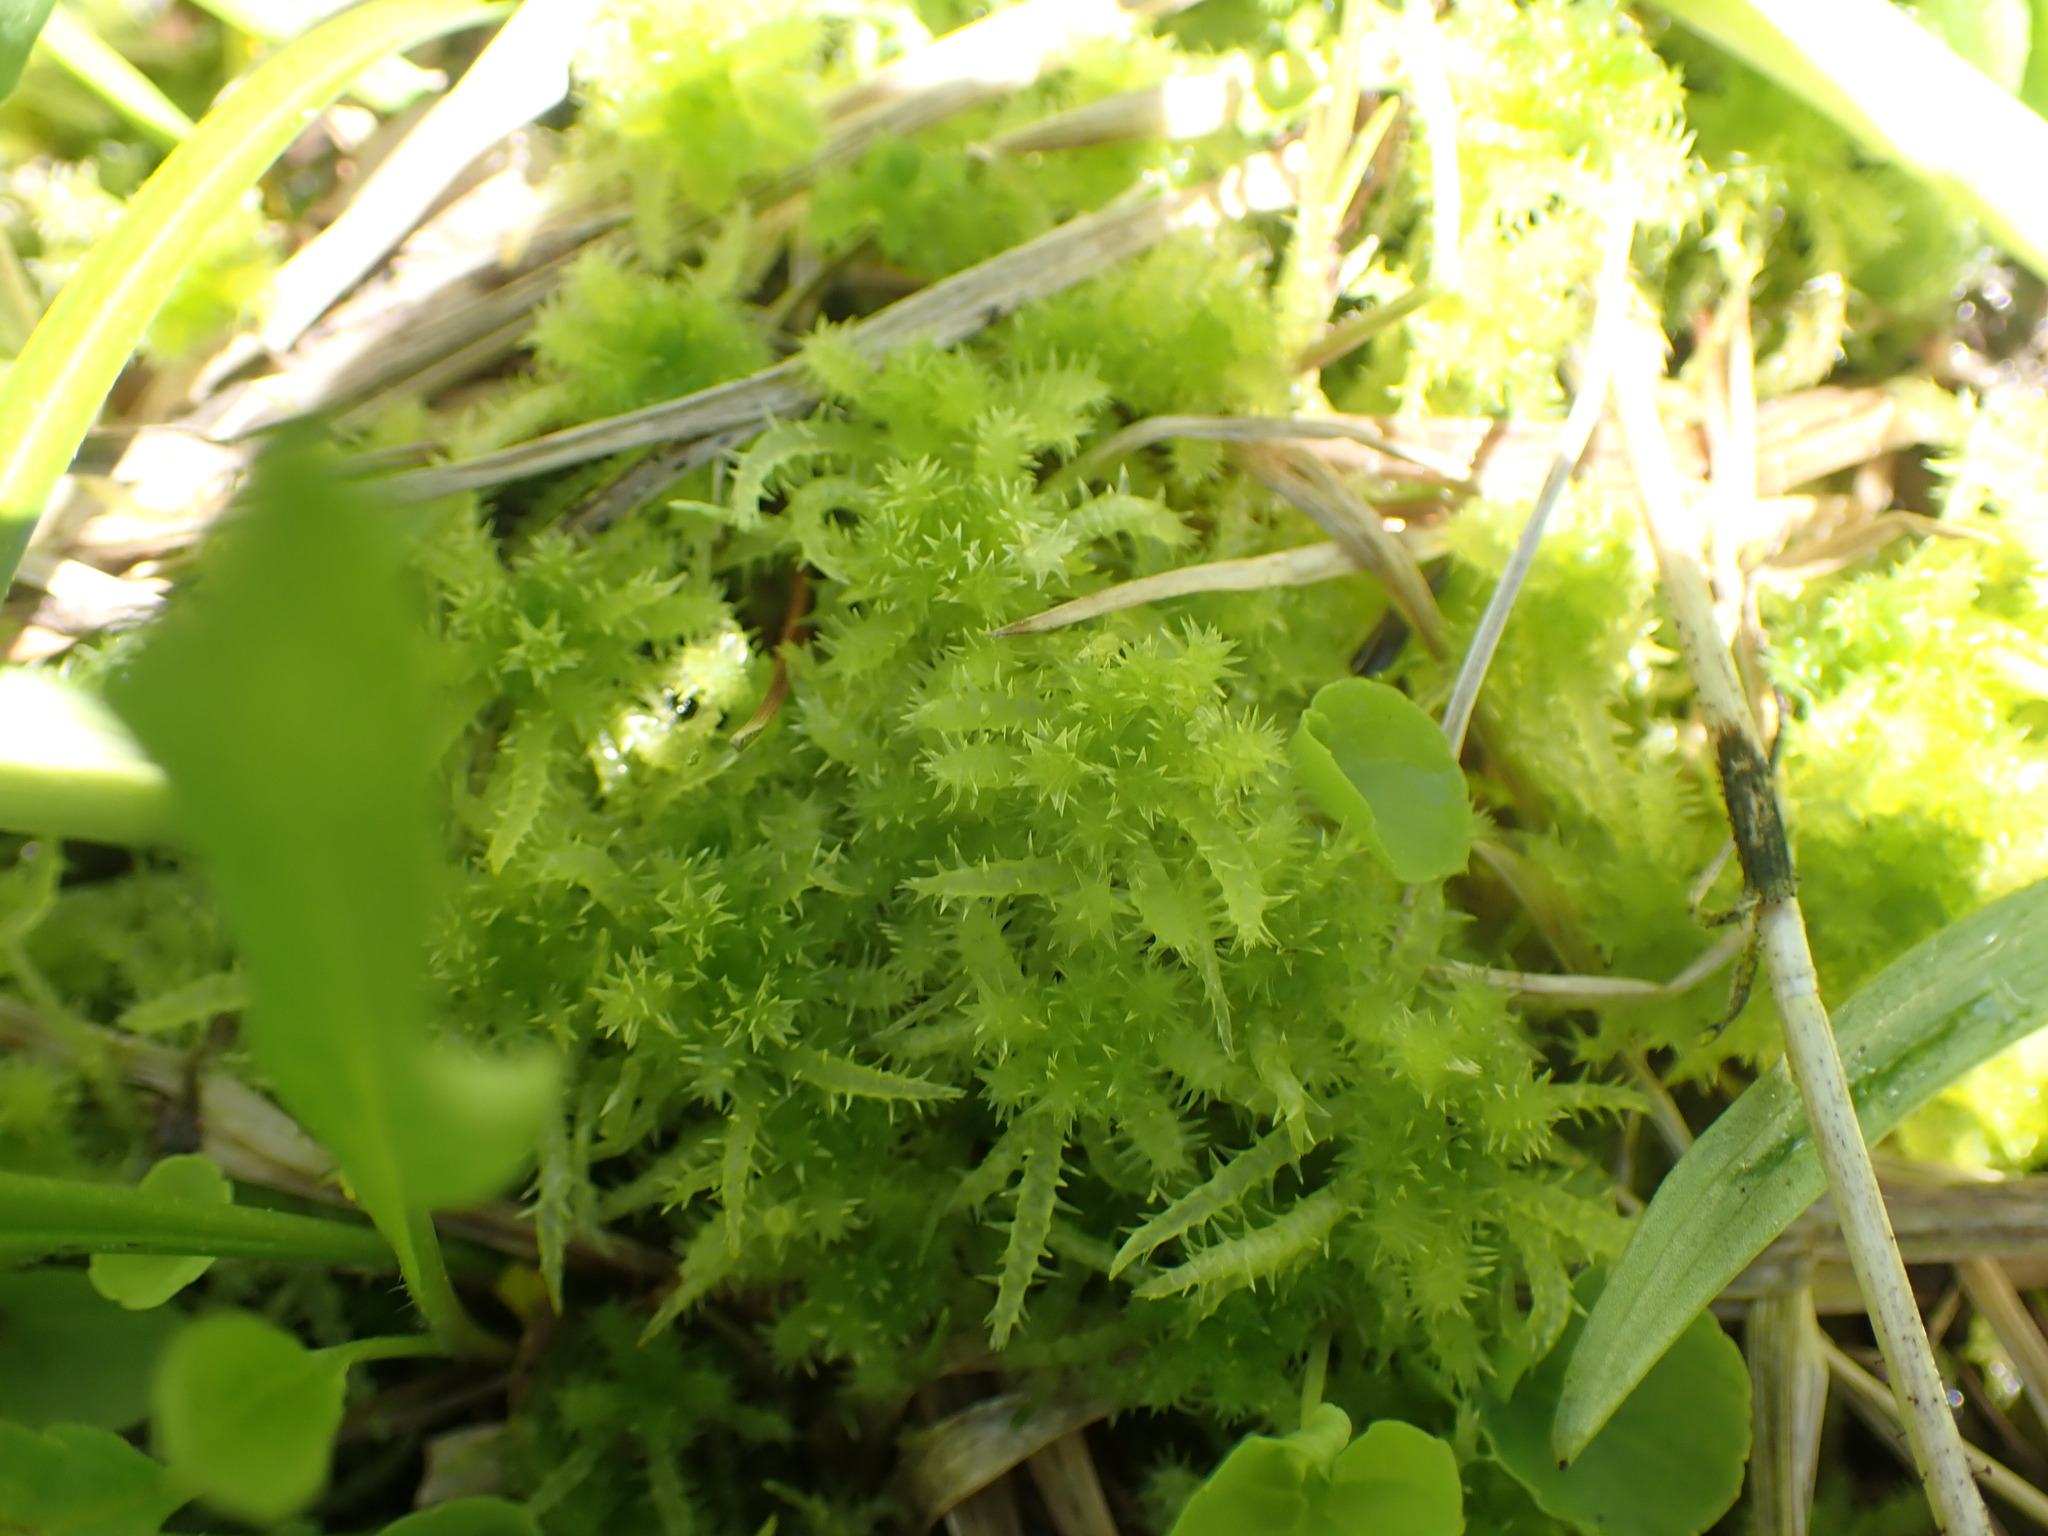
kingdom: Plantae
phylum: Bryophyta
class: Sphagnopsida
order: Sphagnales
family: Sphagnaceae
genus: Sphagnum
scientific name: Sphagnum squarrosum
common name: Shaggy peat moss
